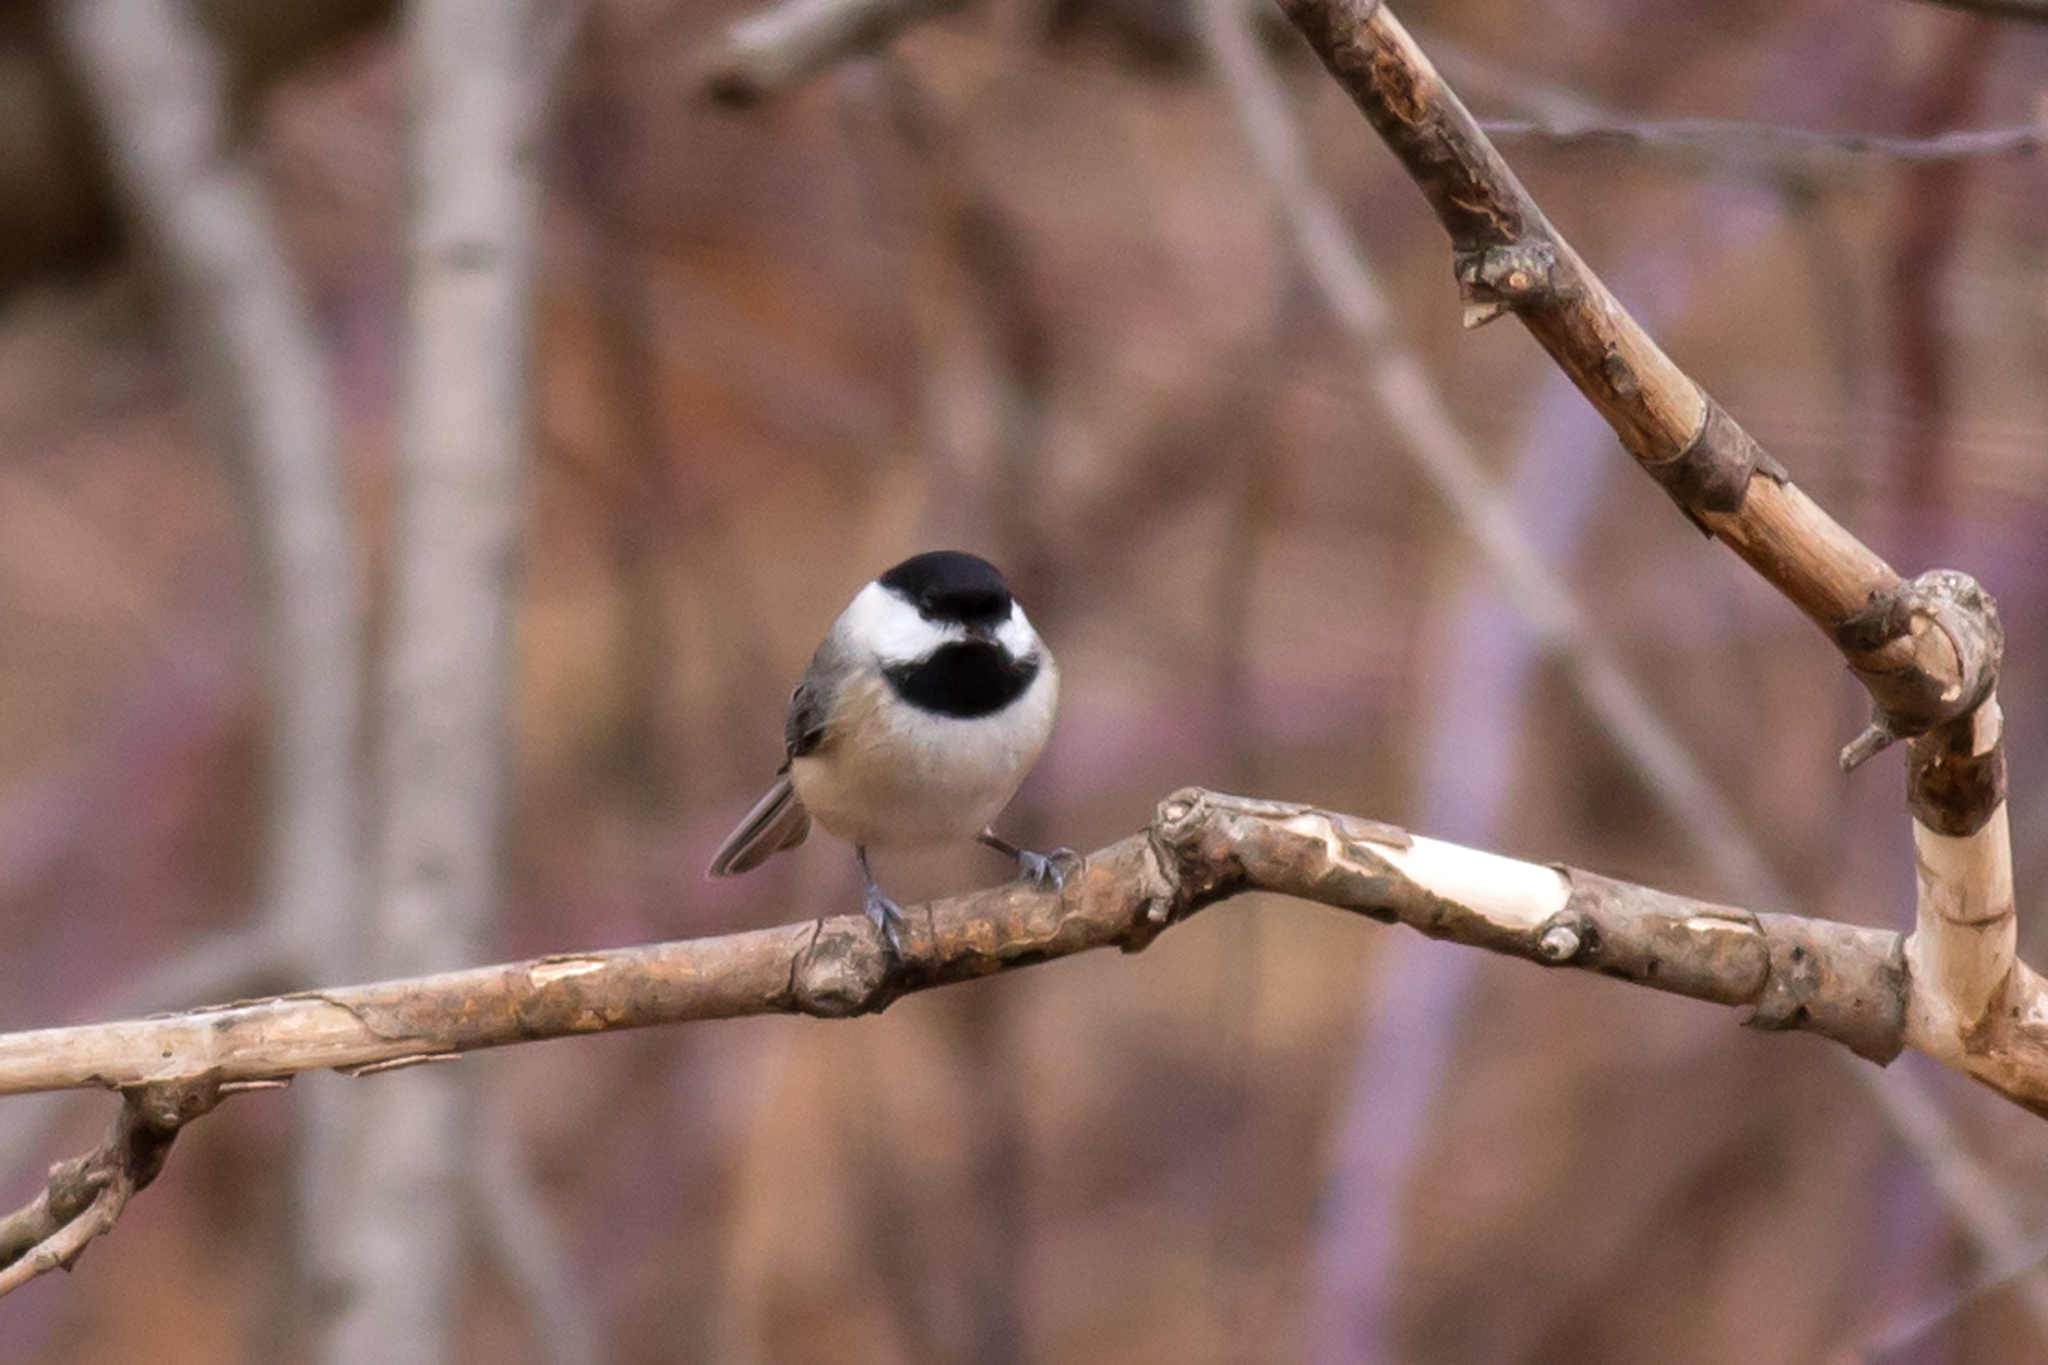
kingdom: Animalia
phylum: Chordata
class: Aves
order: Passeriformes
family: Paridae
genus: Poecile
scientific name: Poecile carolinensis
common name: Carolina chickadee
